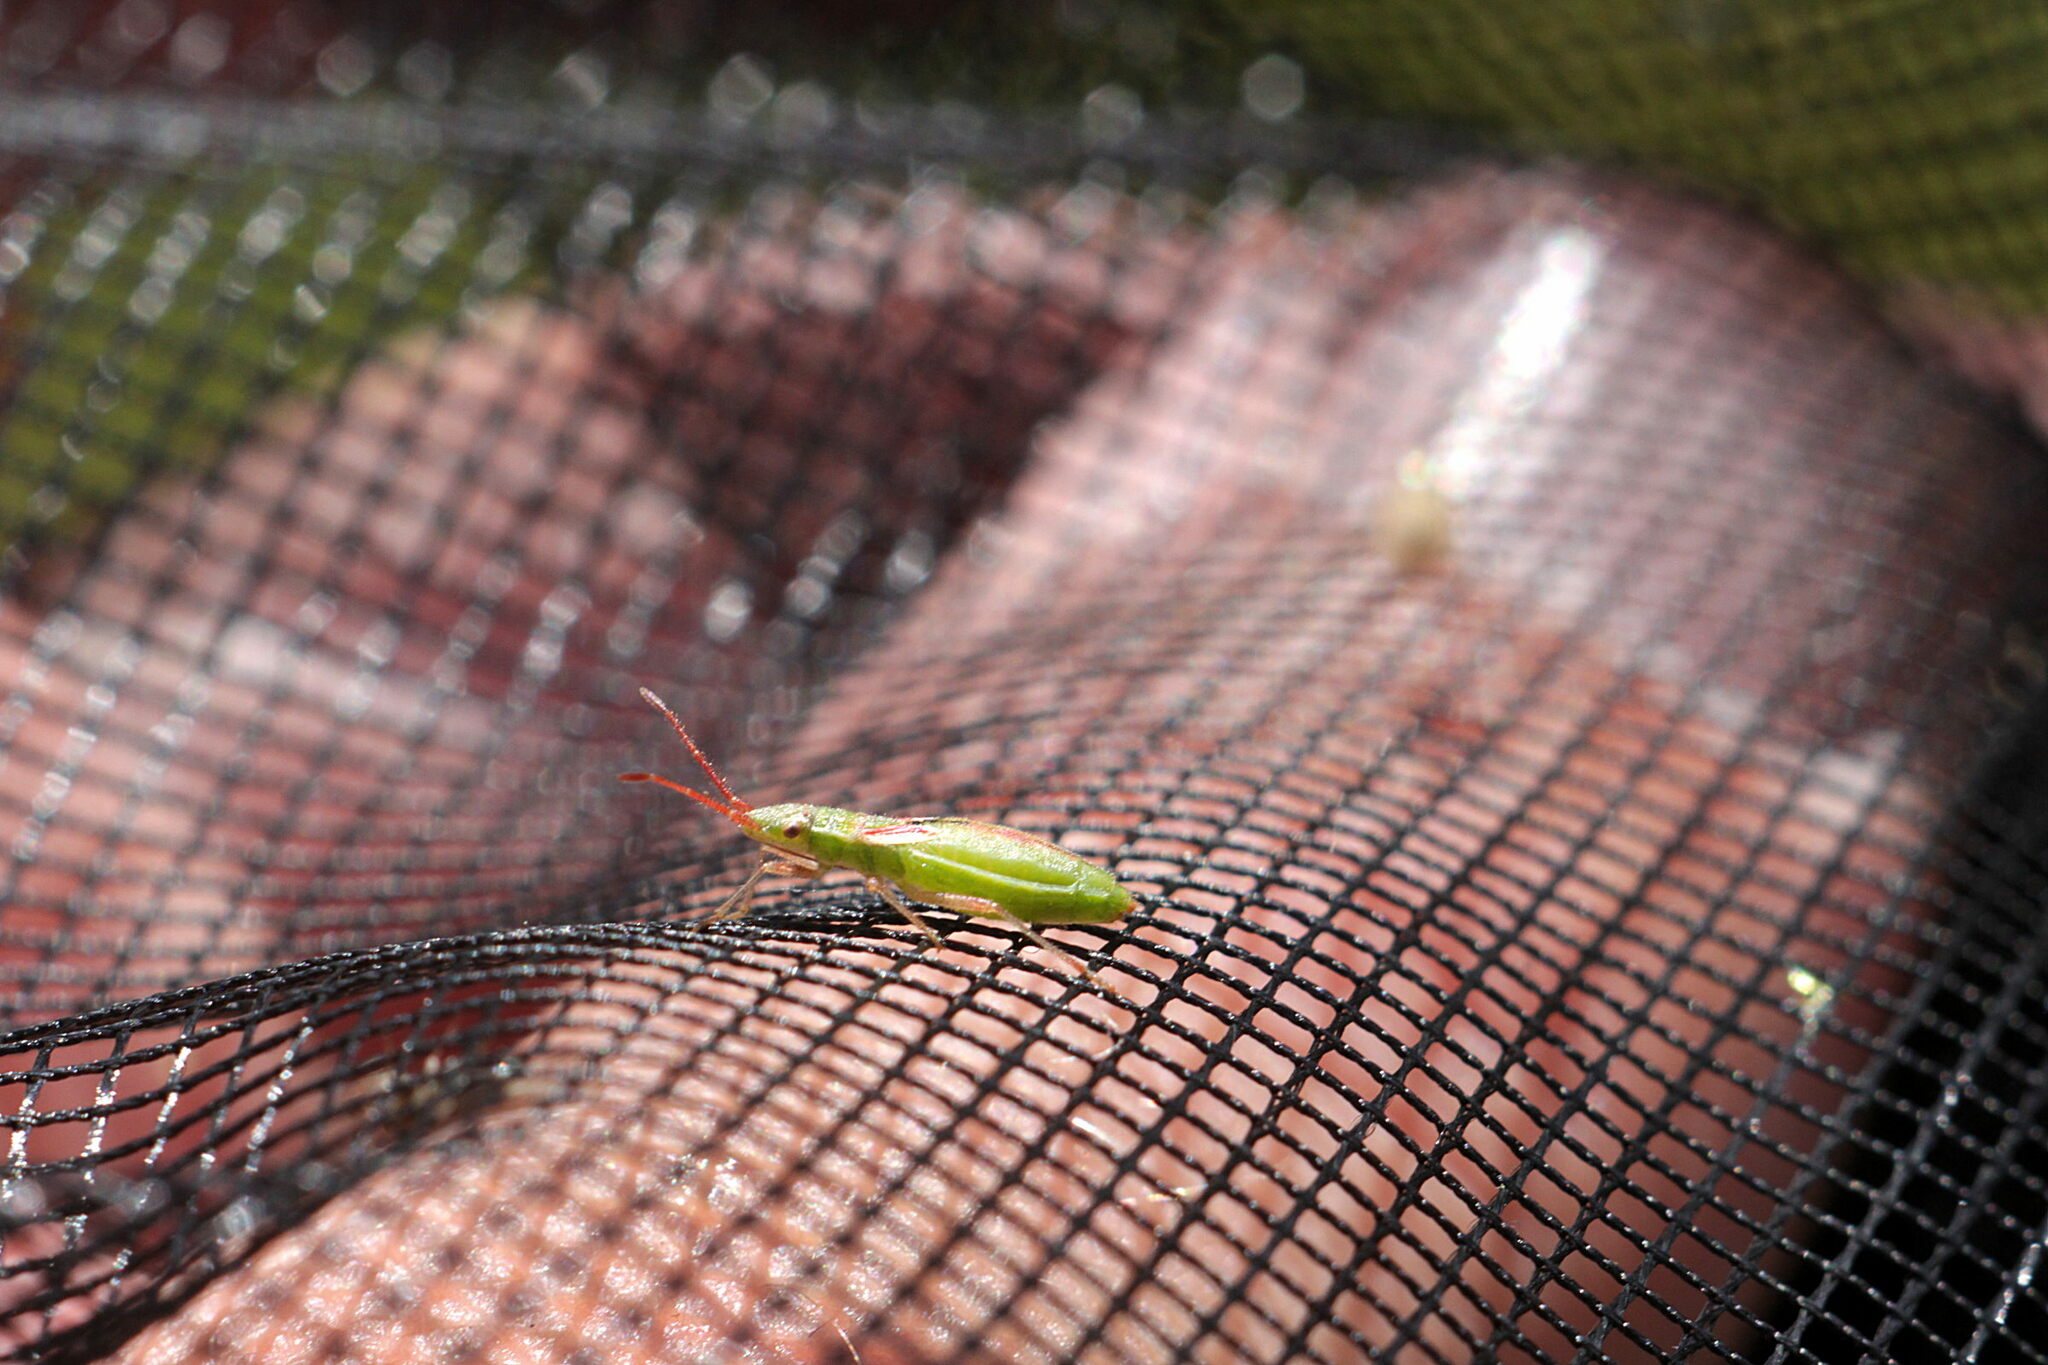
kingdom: Animalia
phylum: Arthropoda
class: Insecta
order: Hemiptera
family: Rhopalidae
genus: Myrmus
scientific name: Myrmus miriformis
